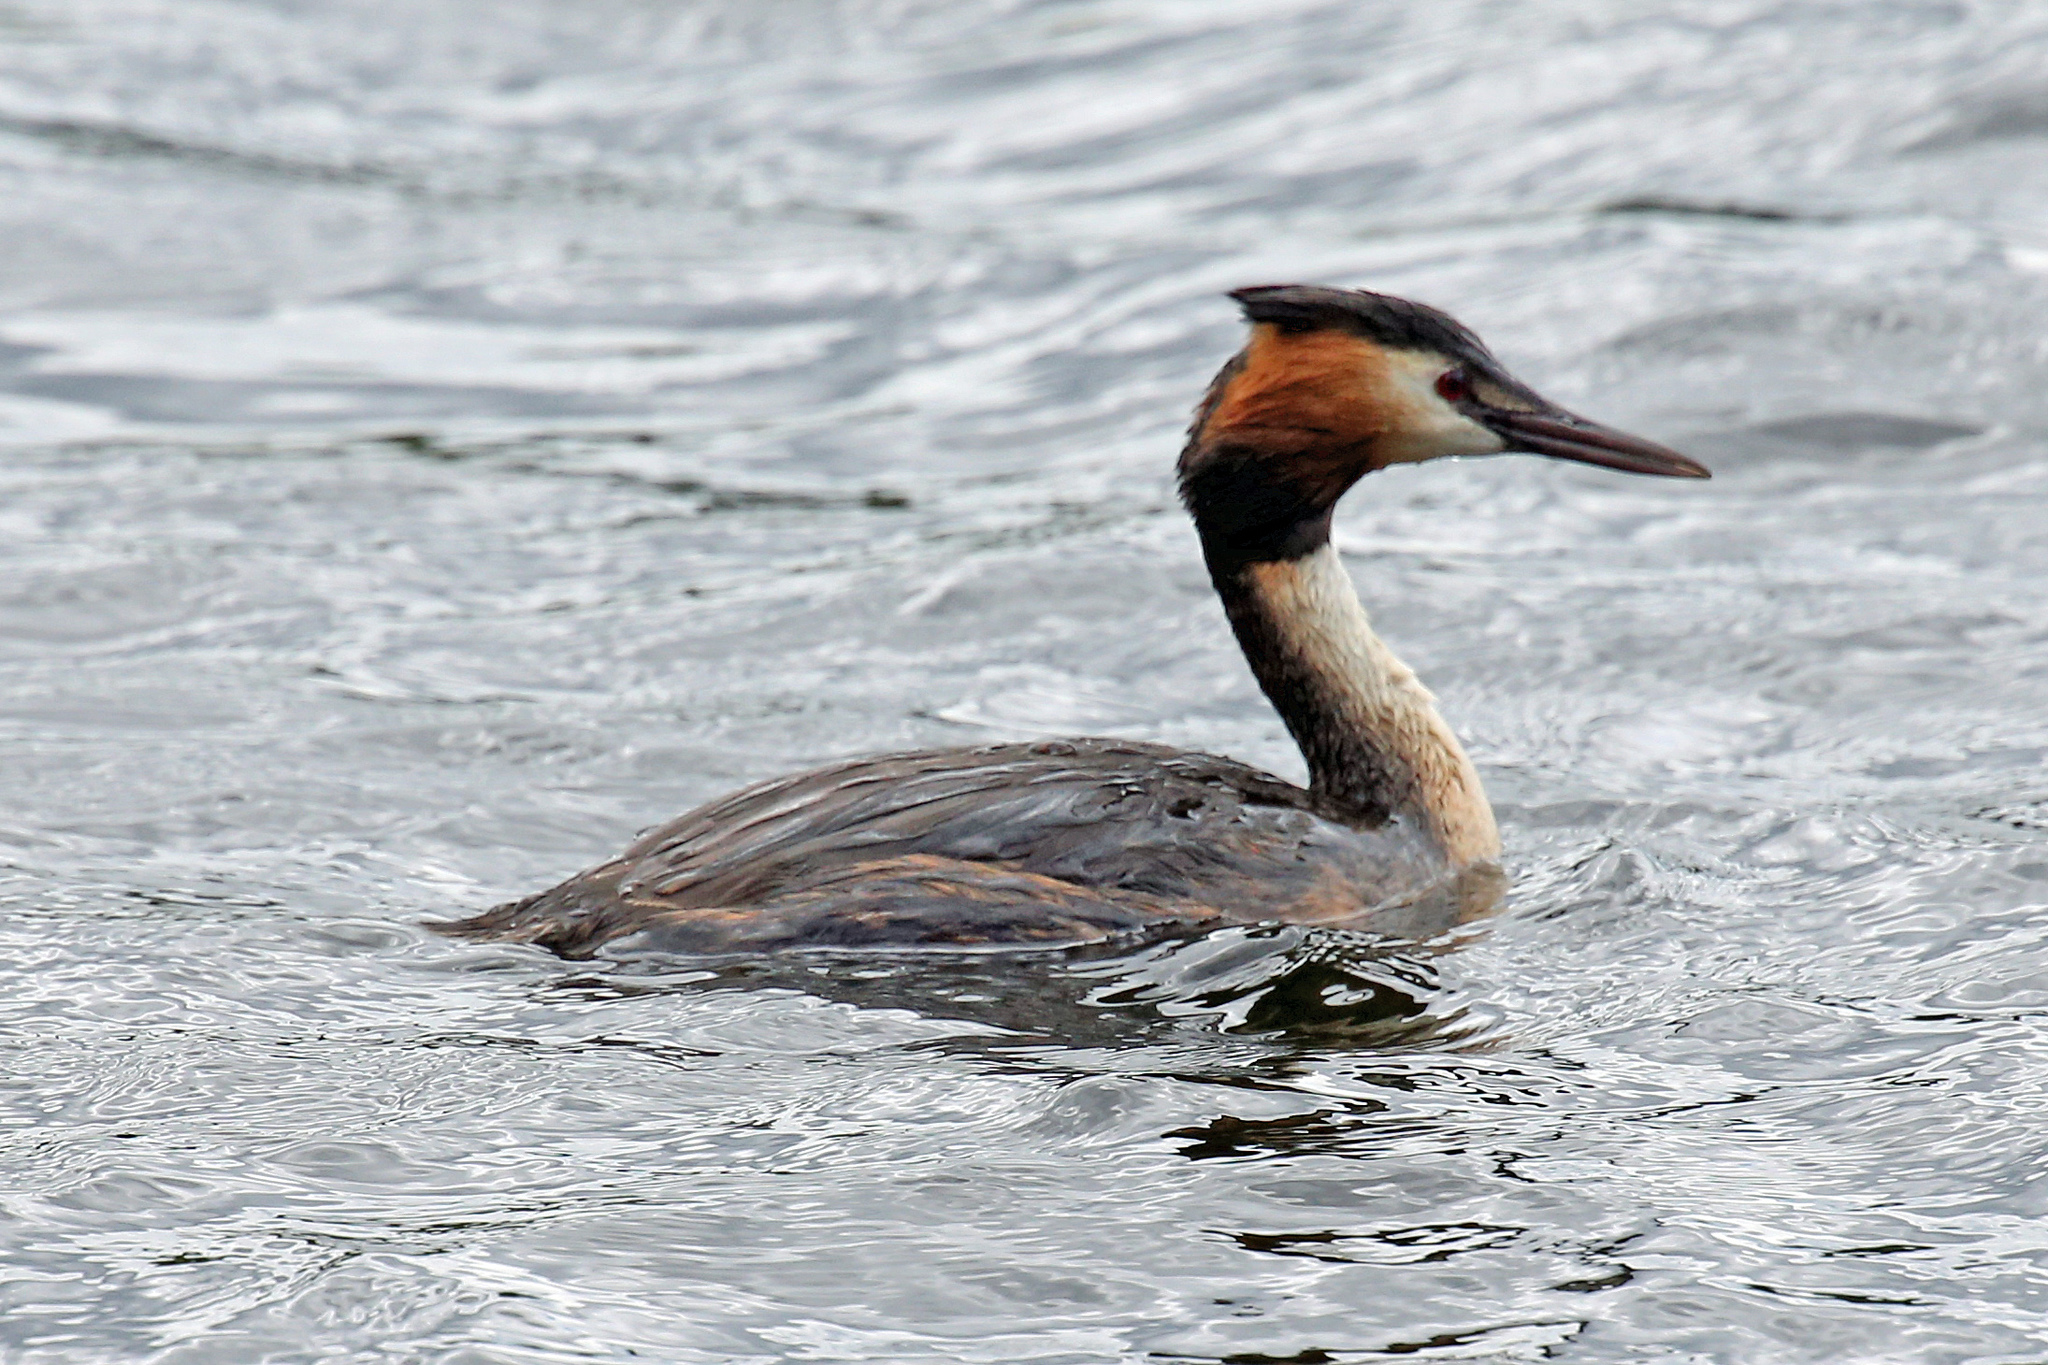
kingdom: Animalia
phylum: Chordata
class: Aves
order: Podicipediformes
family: Podicipedidae
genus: Podiceps
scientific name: Podiceps cristatus
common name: Great crested grebe
